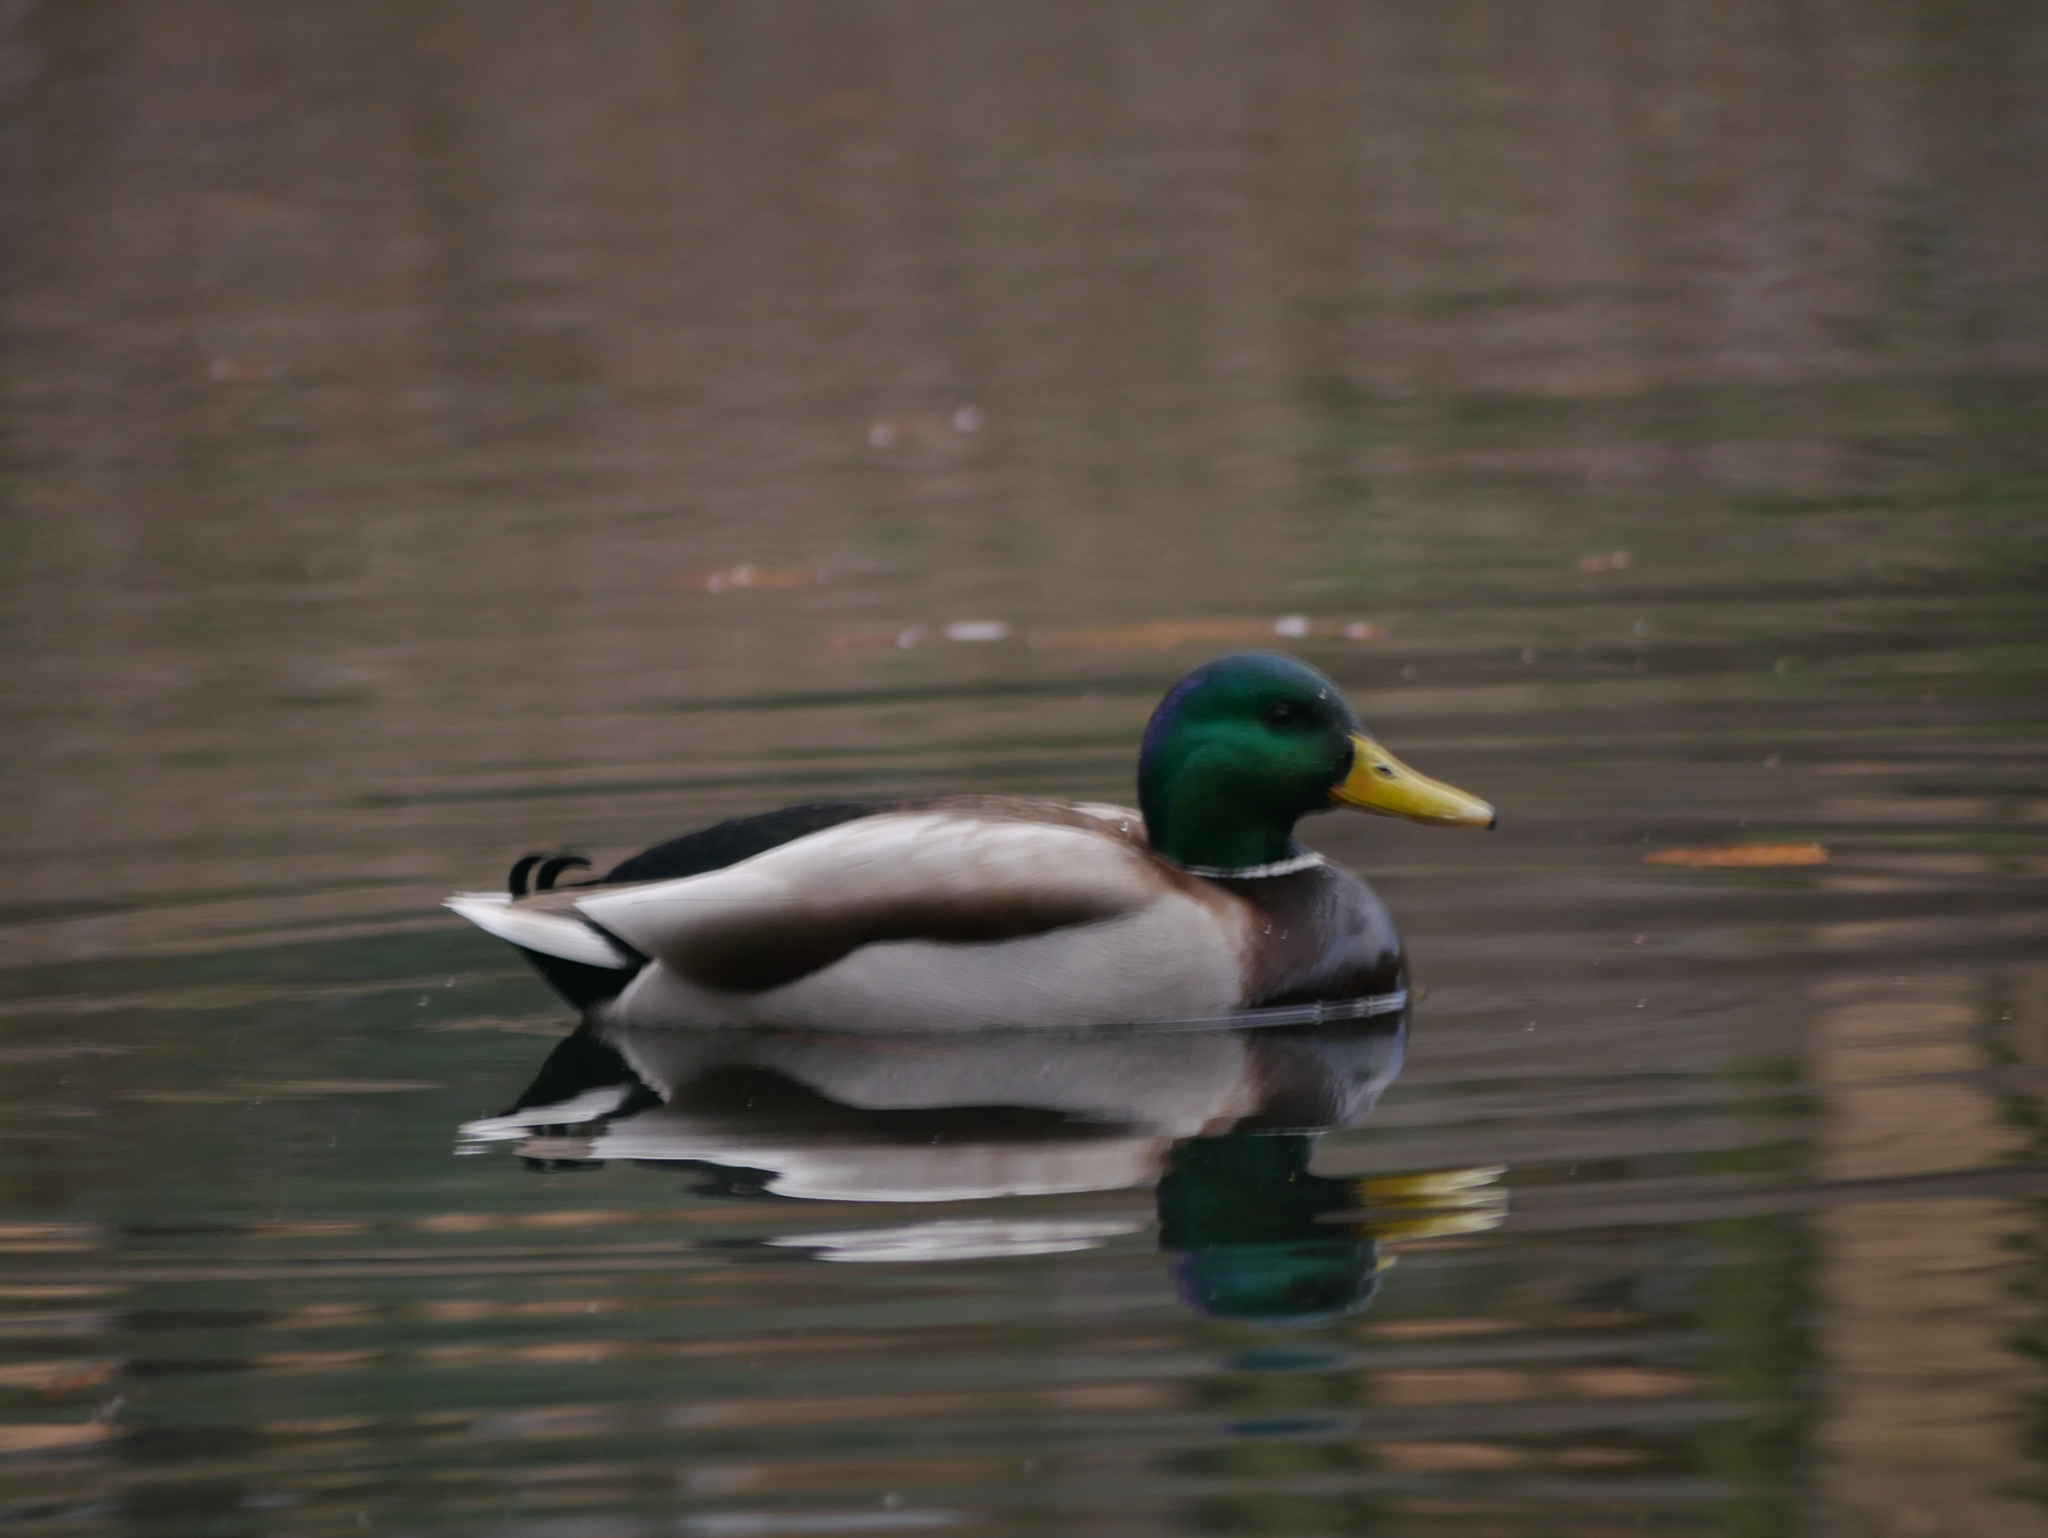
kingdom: Animalia
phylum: Chordata
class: Aves
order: Anseriformes
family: Anatidae
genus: Anas
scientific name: Anas platyrhynchos
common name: Mallard
